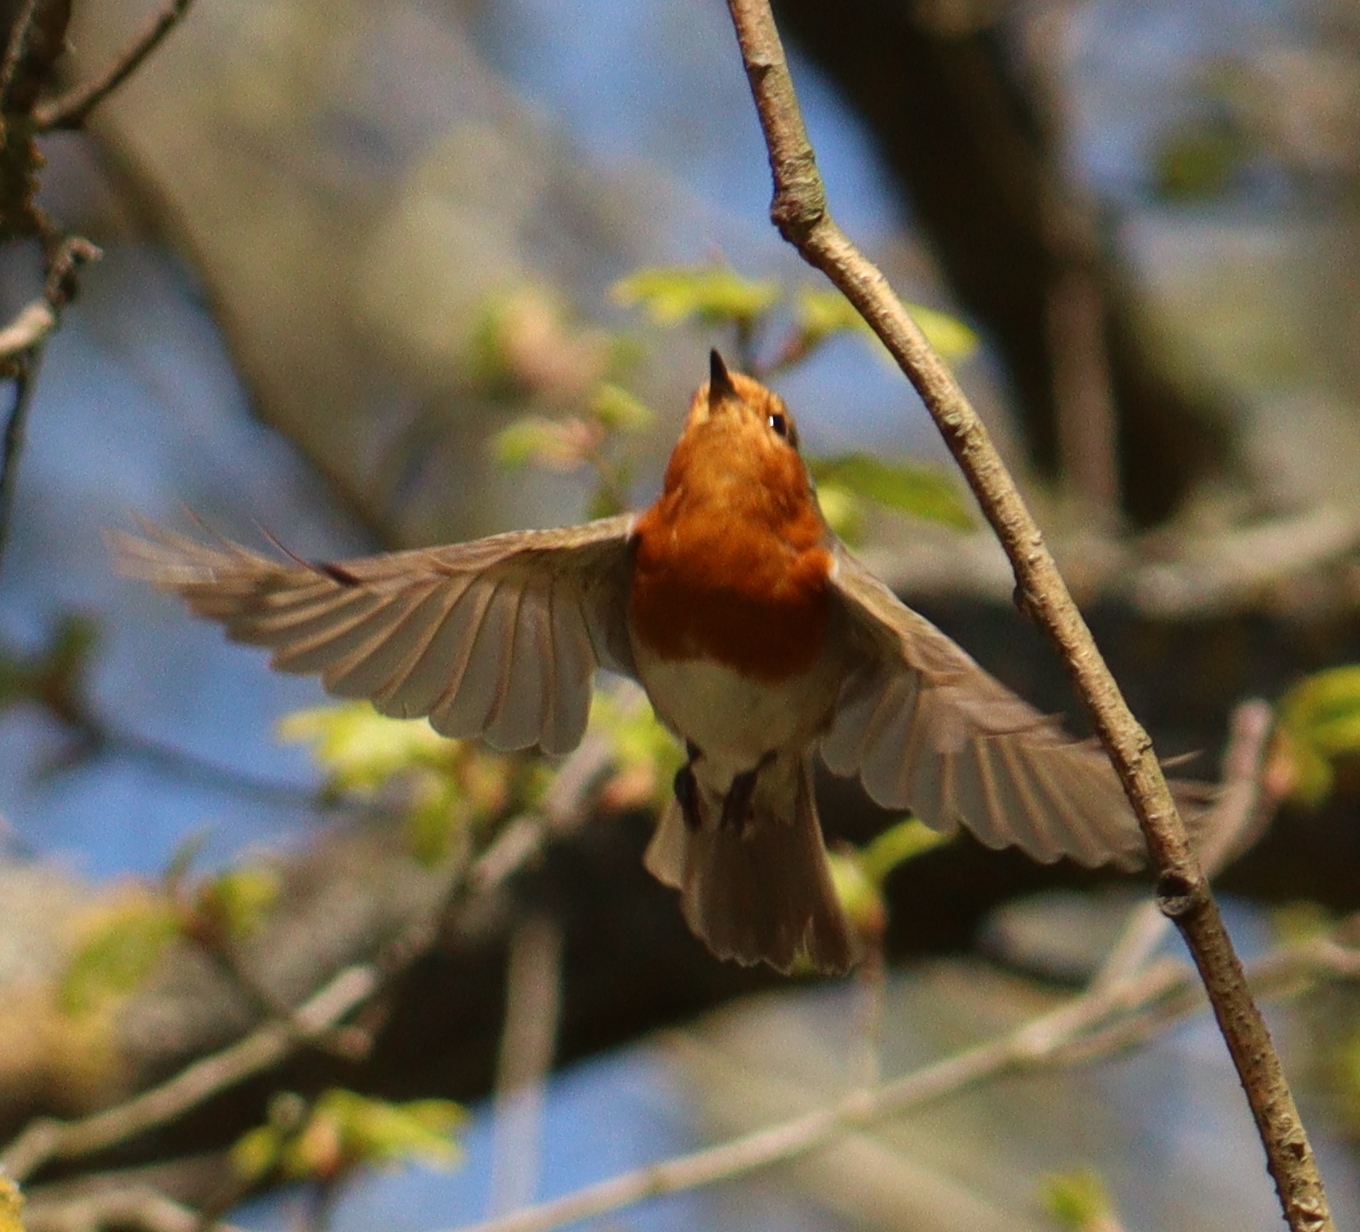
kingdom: Animalia
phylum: Chordata
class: Aves
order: Passeriformes
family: Muscicapidae
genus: Erithacus
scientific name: Erithacus rubecula
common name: European robin
